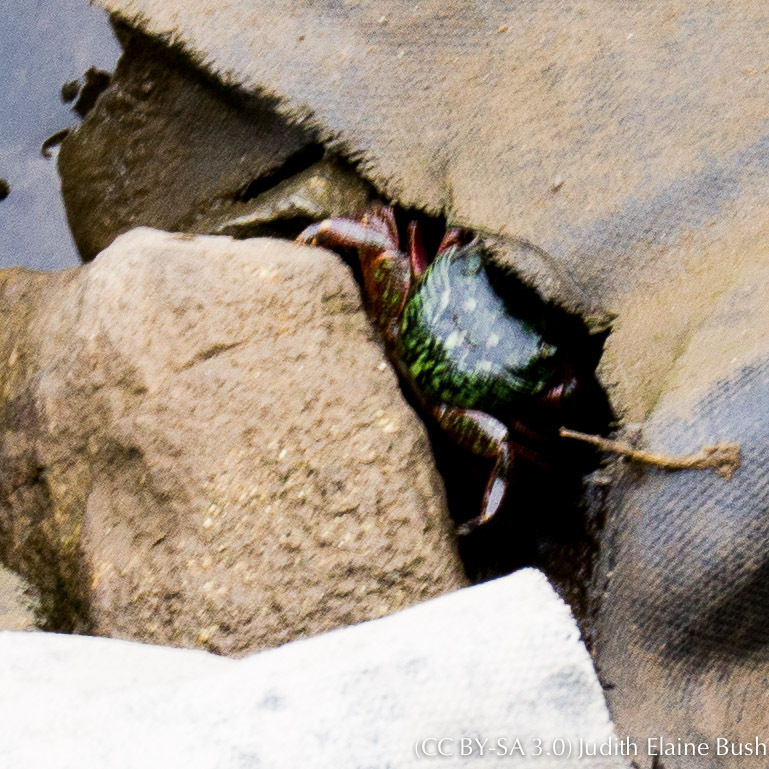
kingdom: Animalia
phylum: Arthropoda
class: Malacostraca
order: Decapoda
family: Grapsidae
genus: Pachygrapsus
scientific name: Pachygrapsus crassipes
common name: Striped shore crab
